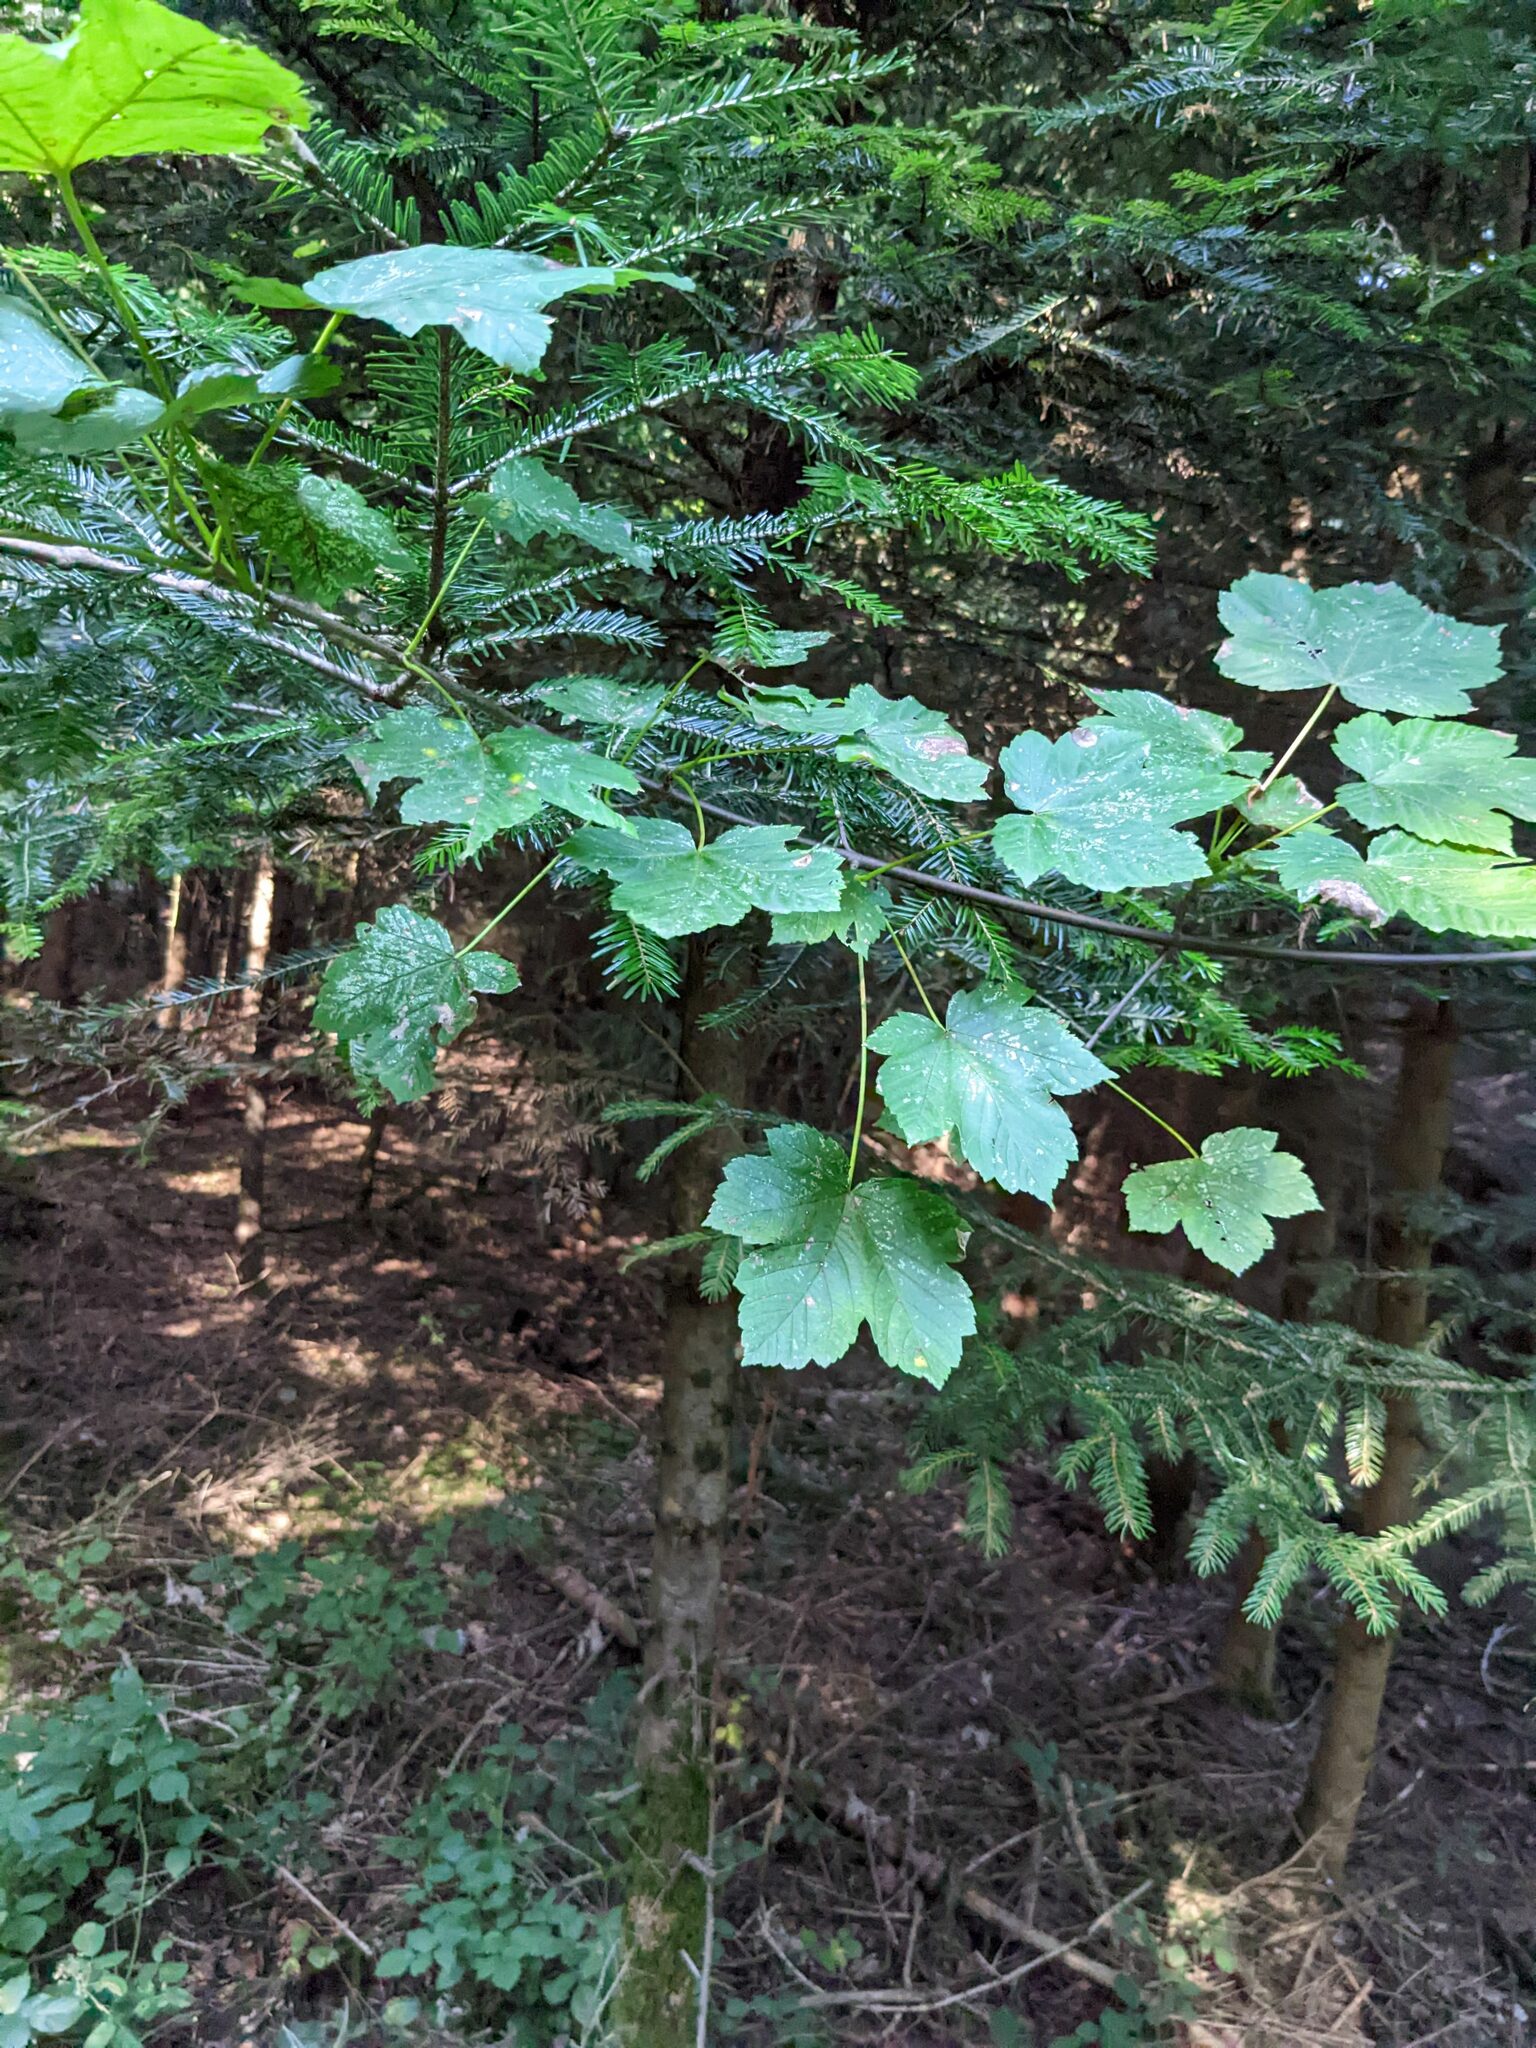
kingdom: Plantae
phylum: Tracheophyta
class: Magnoliopsida
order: Sapindales
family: Sapindaceae
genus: Acer
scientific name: Acer pseudoplatanus
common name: Sycamore
